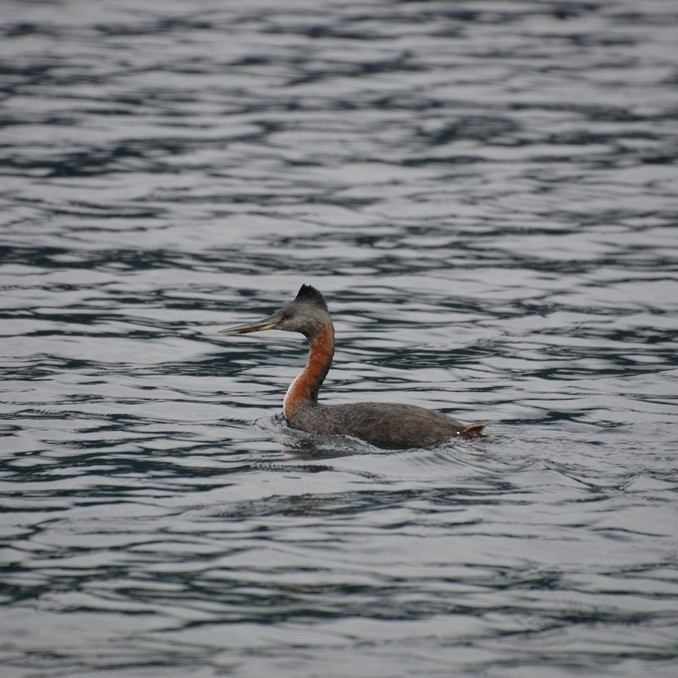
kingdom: Animalia
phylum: Chordata
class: Aves
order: Podicipediformes
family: Podicipedidae
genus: Podiceps
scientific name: Podiceps major
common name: Great grebe
